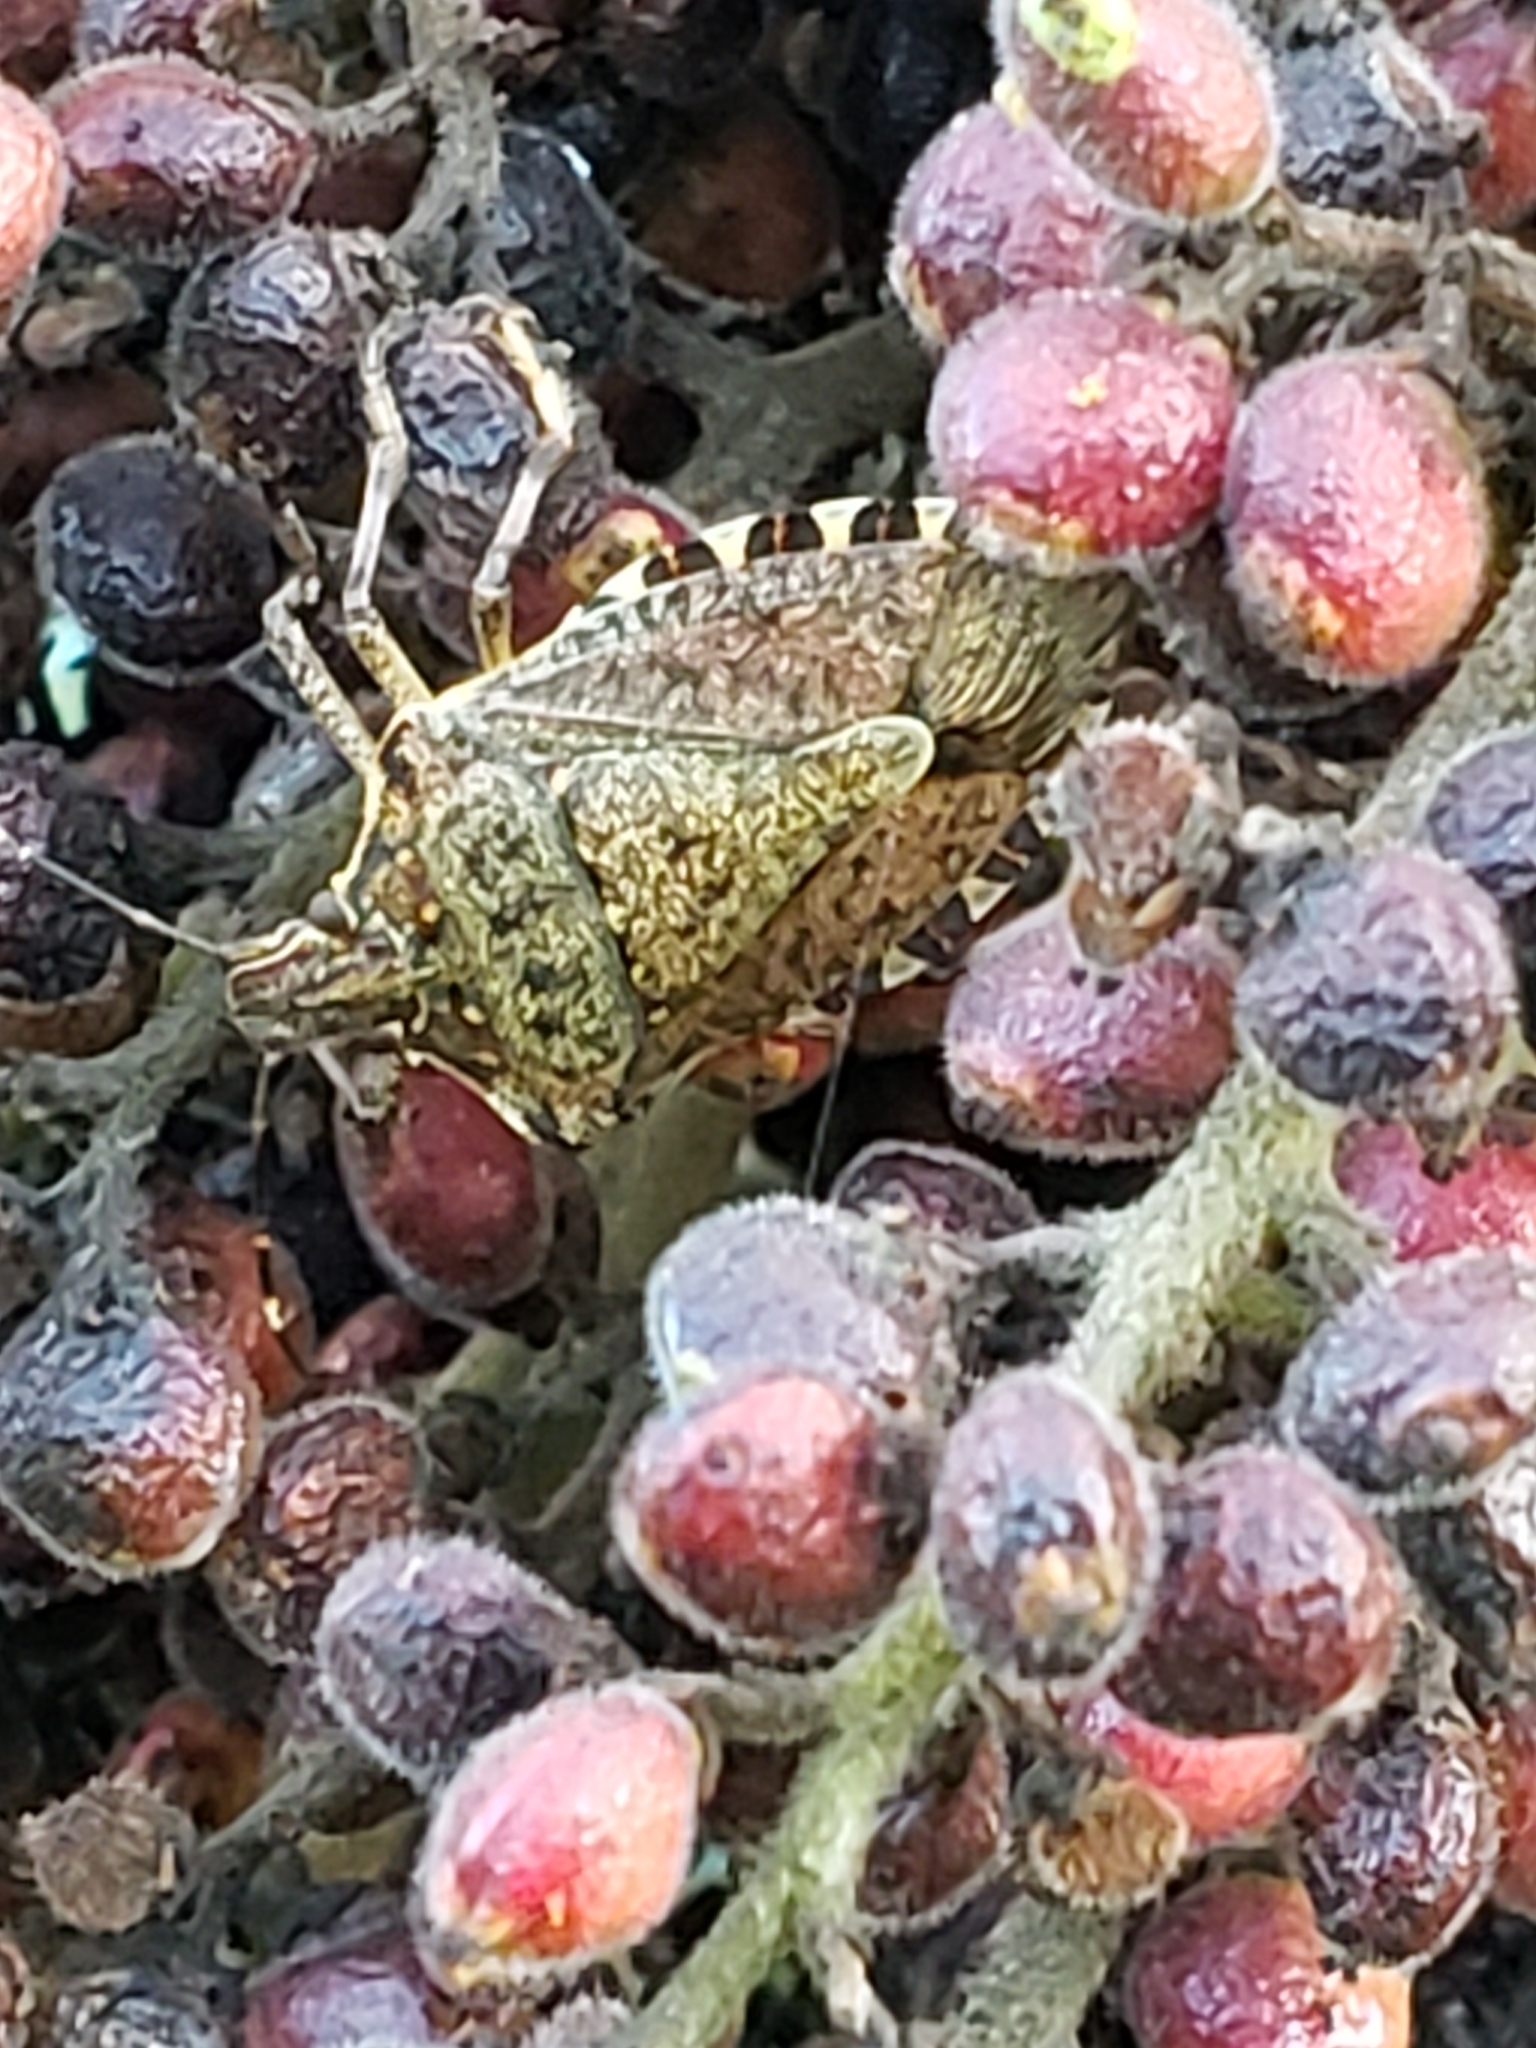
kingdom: Animalia
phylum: Arthropoda
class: Insecta
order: Hemiptera
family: Pentatomidae
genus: Halyomorpha
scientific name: Halyomorpha halys
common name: Brown marmorated stink bug
